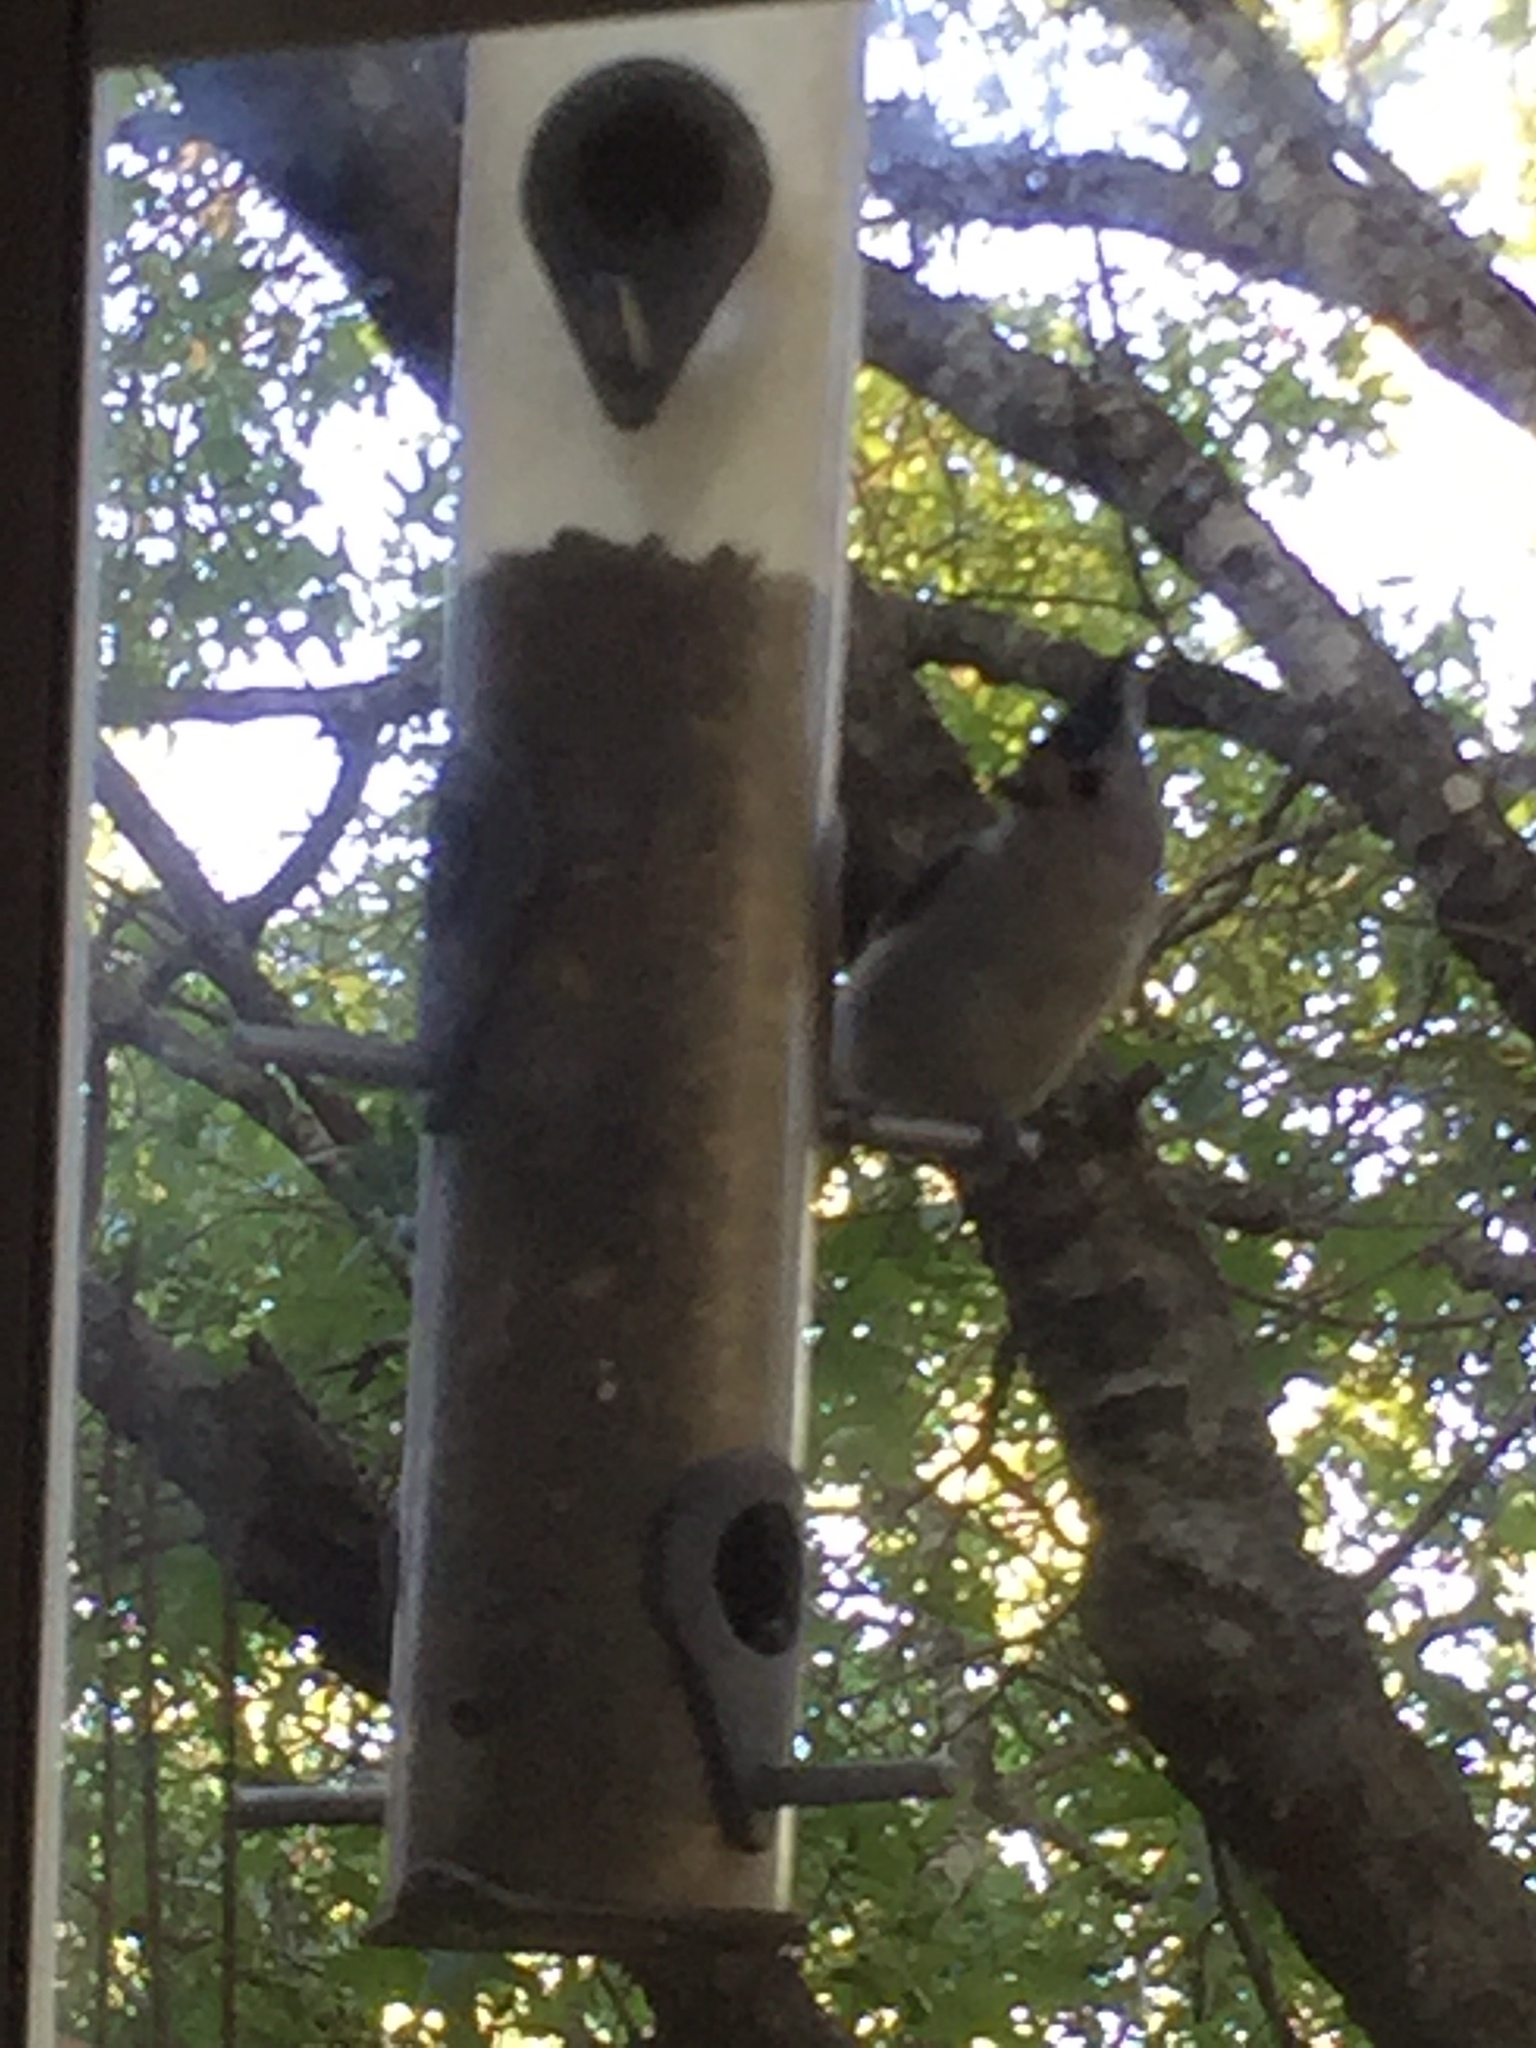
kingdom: Animalia
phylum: Chordata
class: Aves
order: Passeriformes
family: Paridae
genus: Baeolophus
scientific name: Baeolophus atricristatus
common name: Black-crested titmouse
